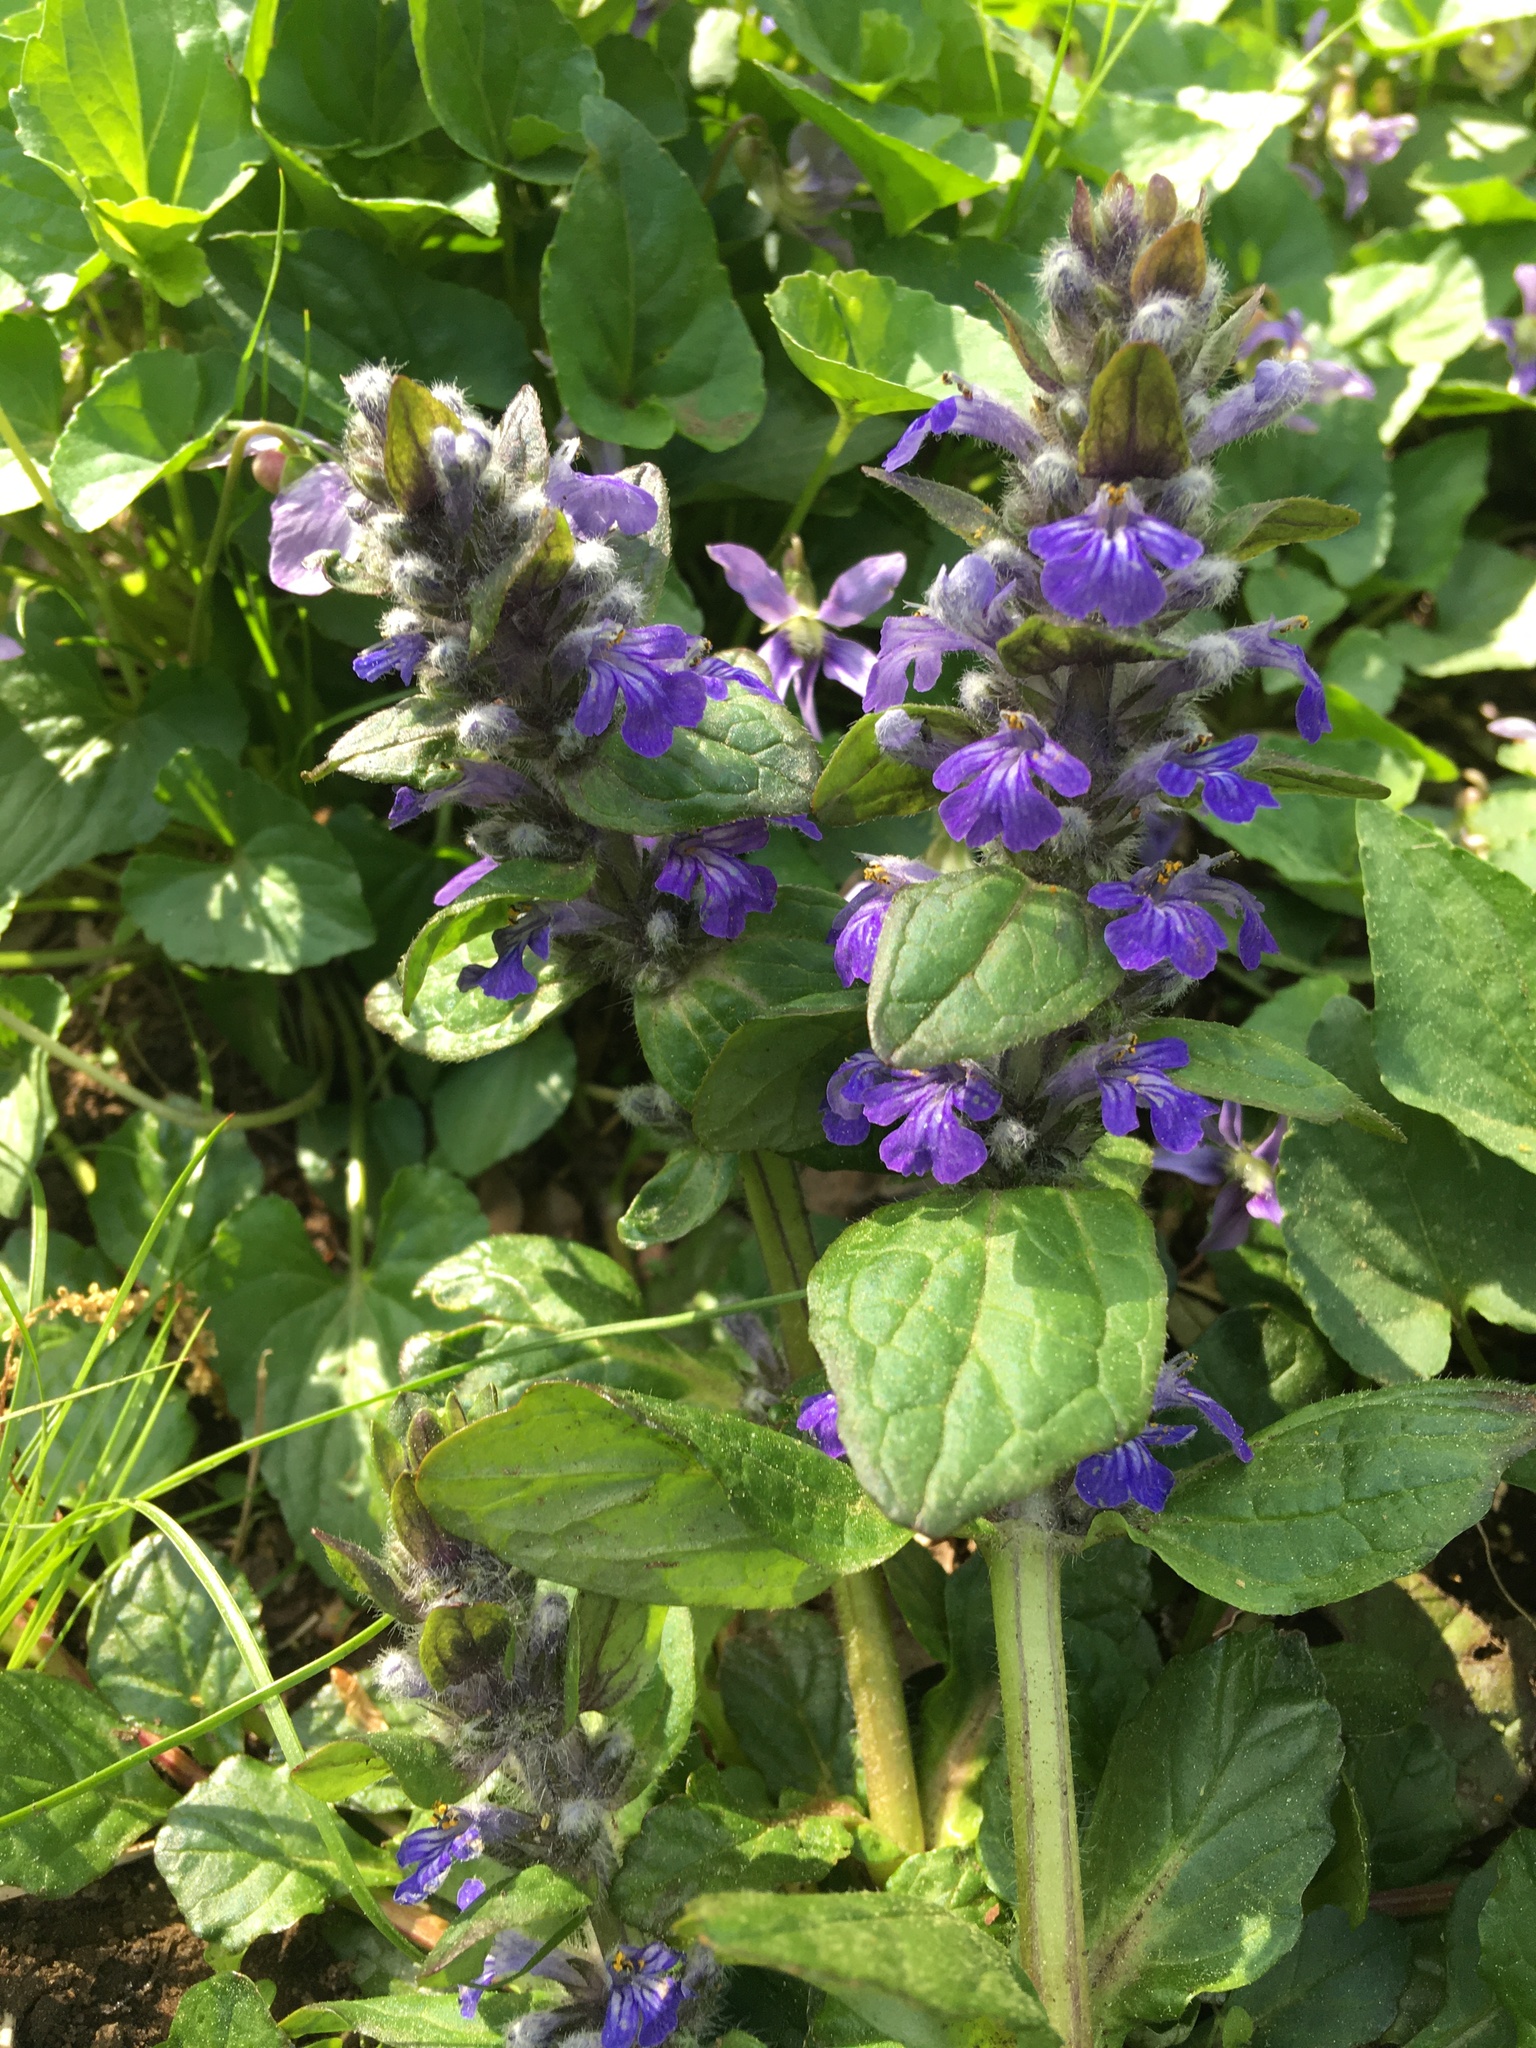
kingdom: Plantae
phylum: Tracheophyta
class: Magnoliopsida
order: Lamiales
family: Lamiaceae
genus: Ajuga
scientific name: Ajuga reptans
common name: Bugle
